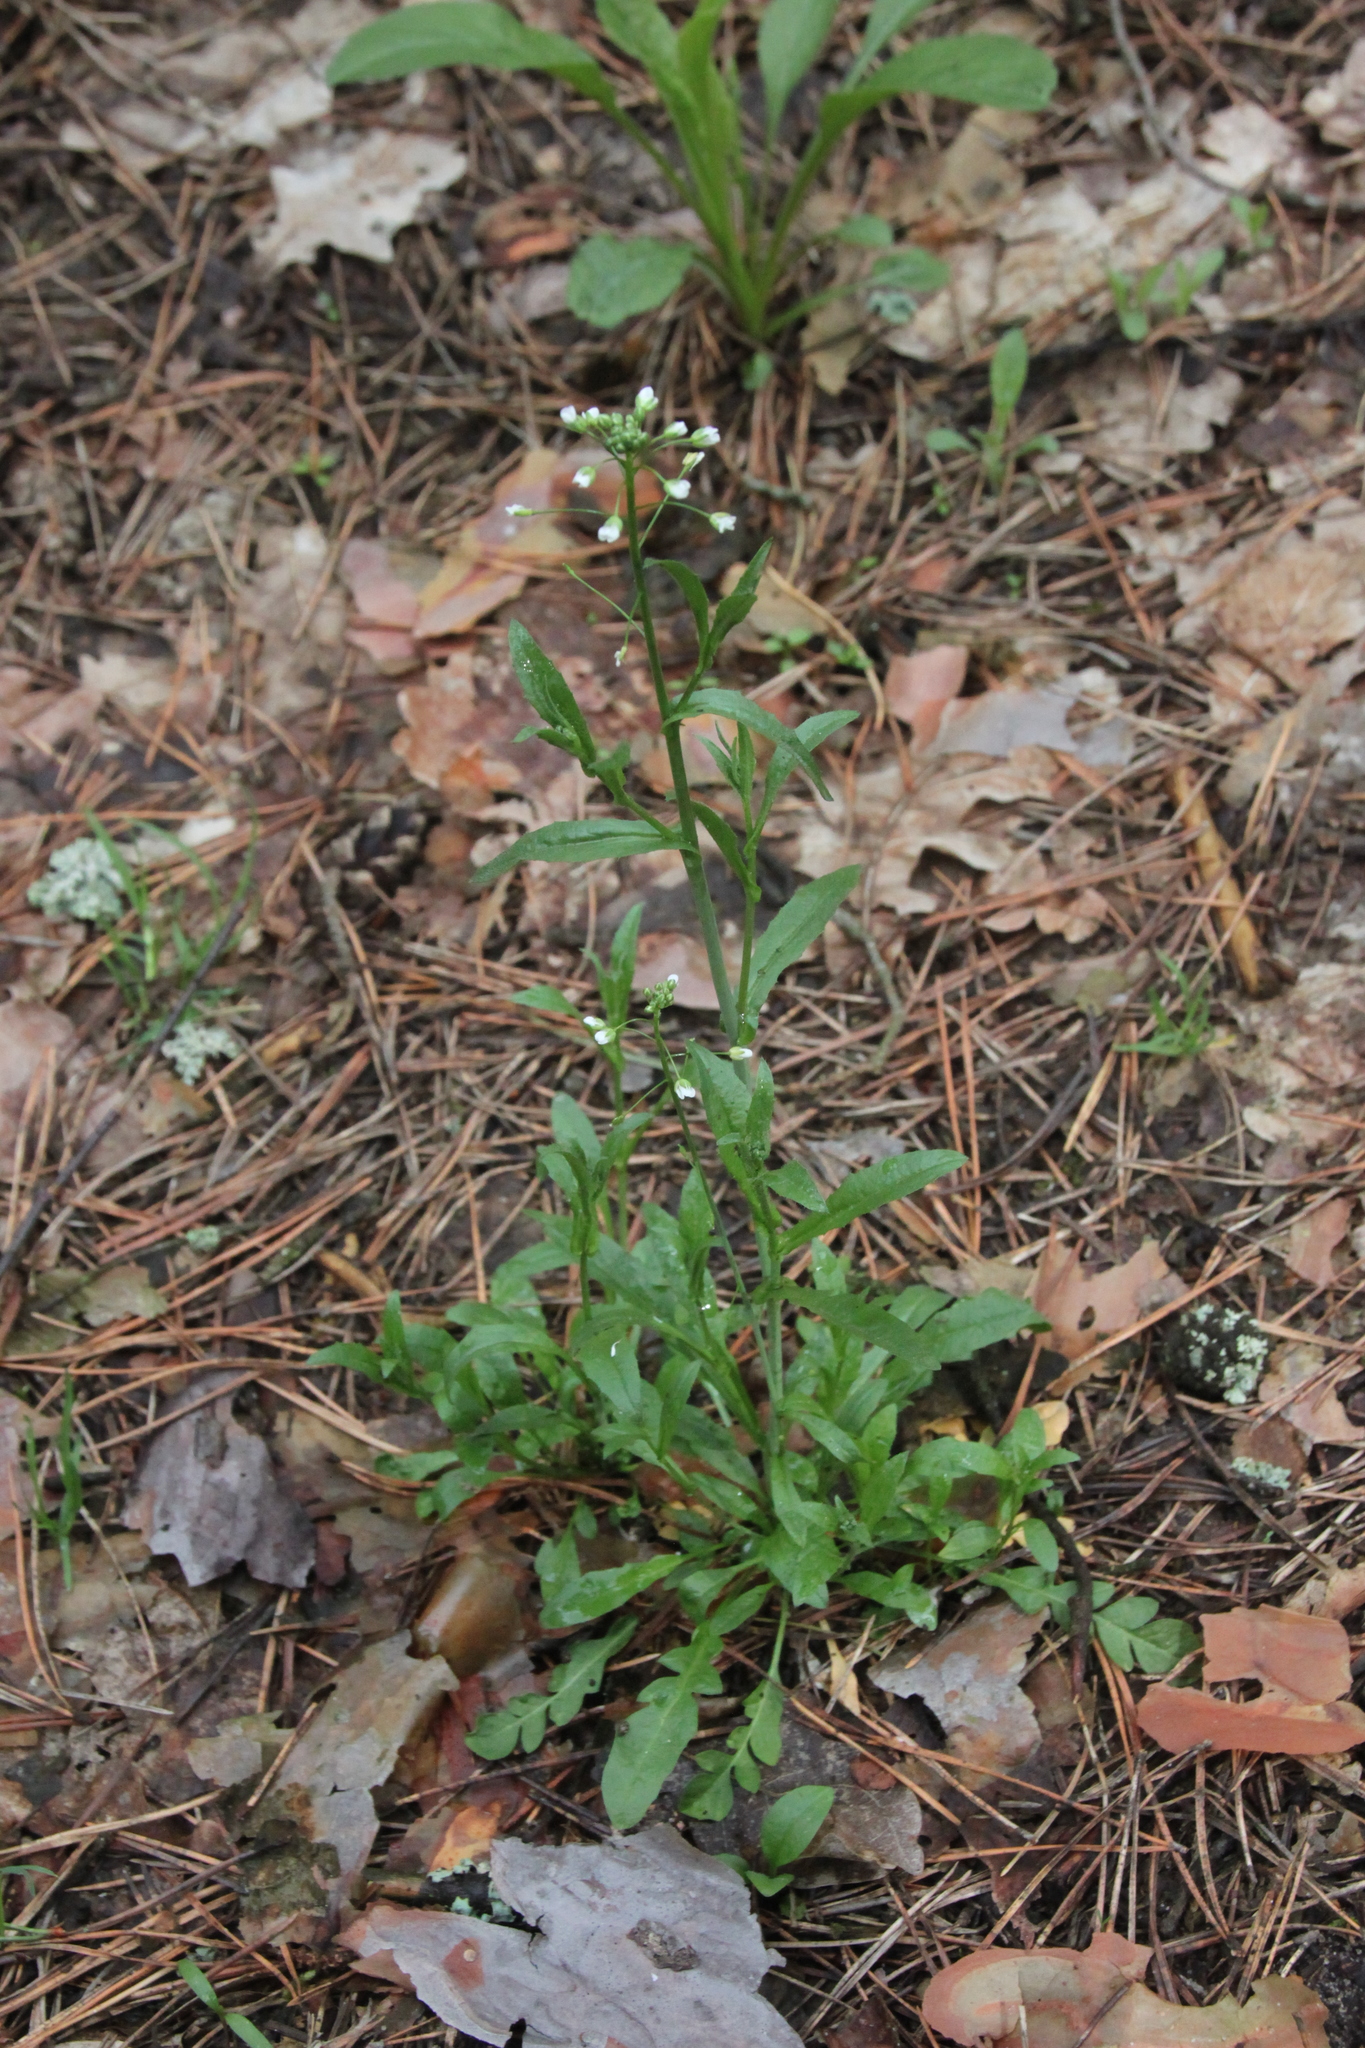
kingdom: Plantae
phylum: Tracheophyta
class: Magnoliopsida
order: Brassicales
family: Brassicaceae
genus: Capsella
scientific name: Capsella bursa-pastoris
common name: Shepherd's purse
